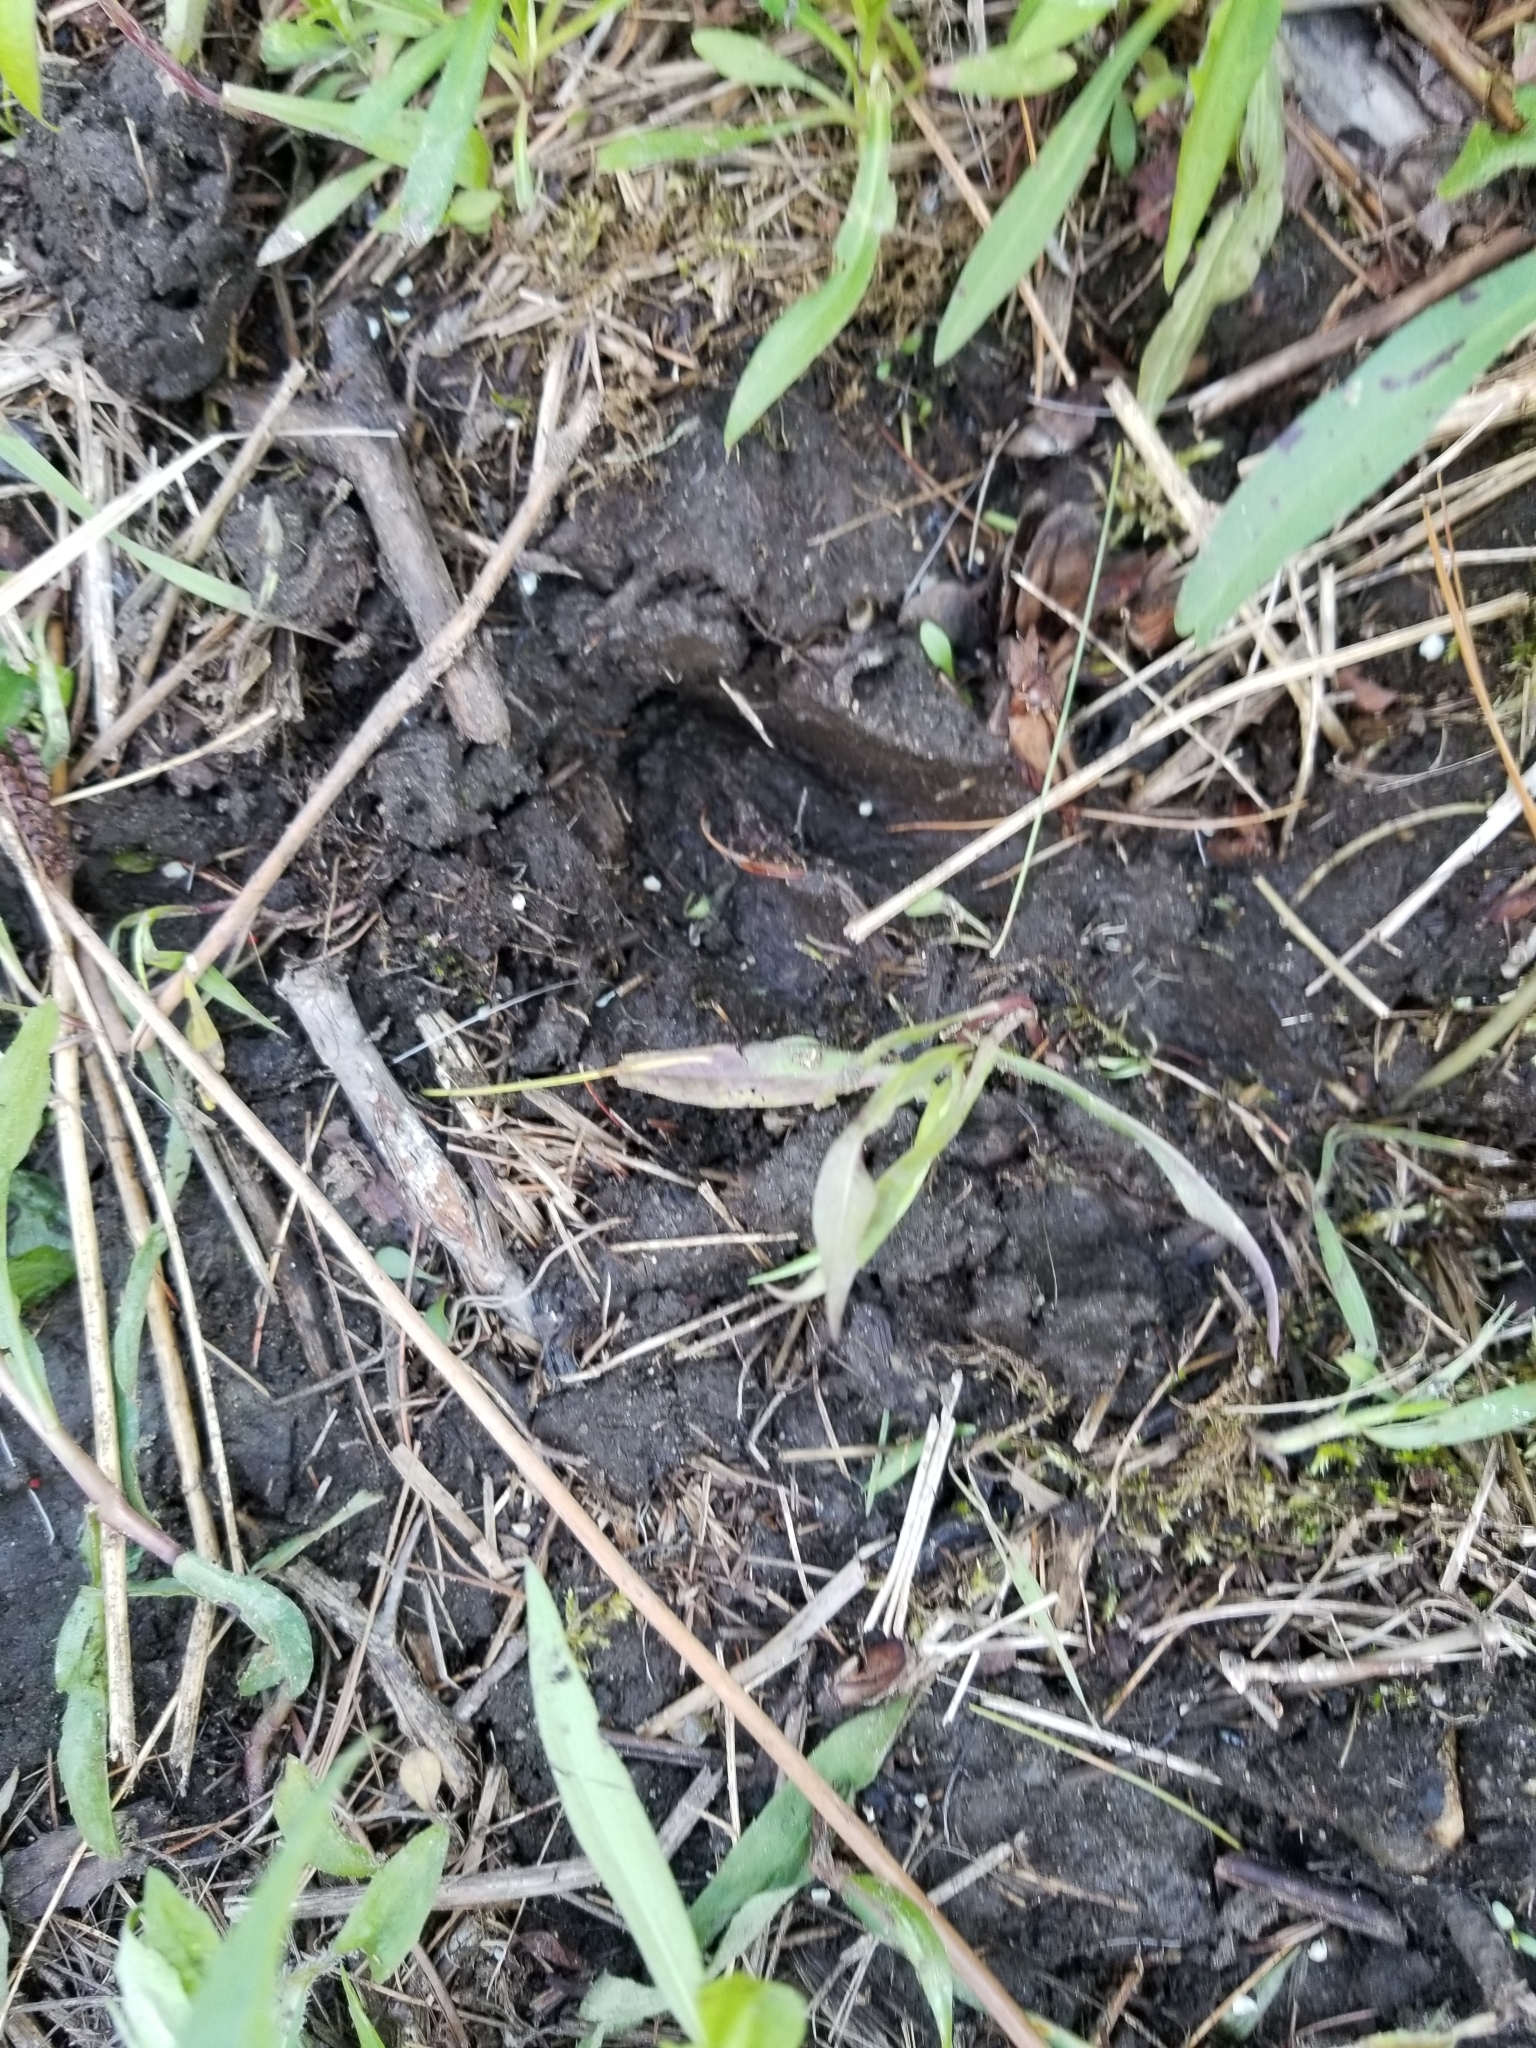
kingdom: Animalia
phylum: Chordata
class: Mammalia
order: Artiodactyla
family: Cervidae
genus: Odocoileus
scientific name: Odocoileus virginianus
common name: White-tailed deer
